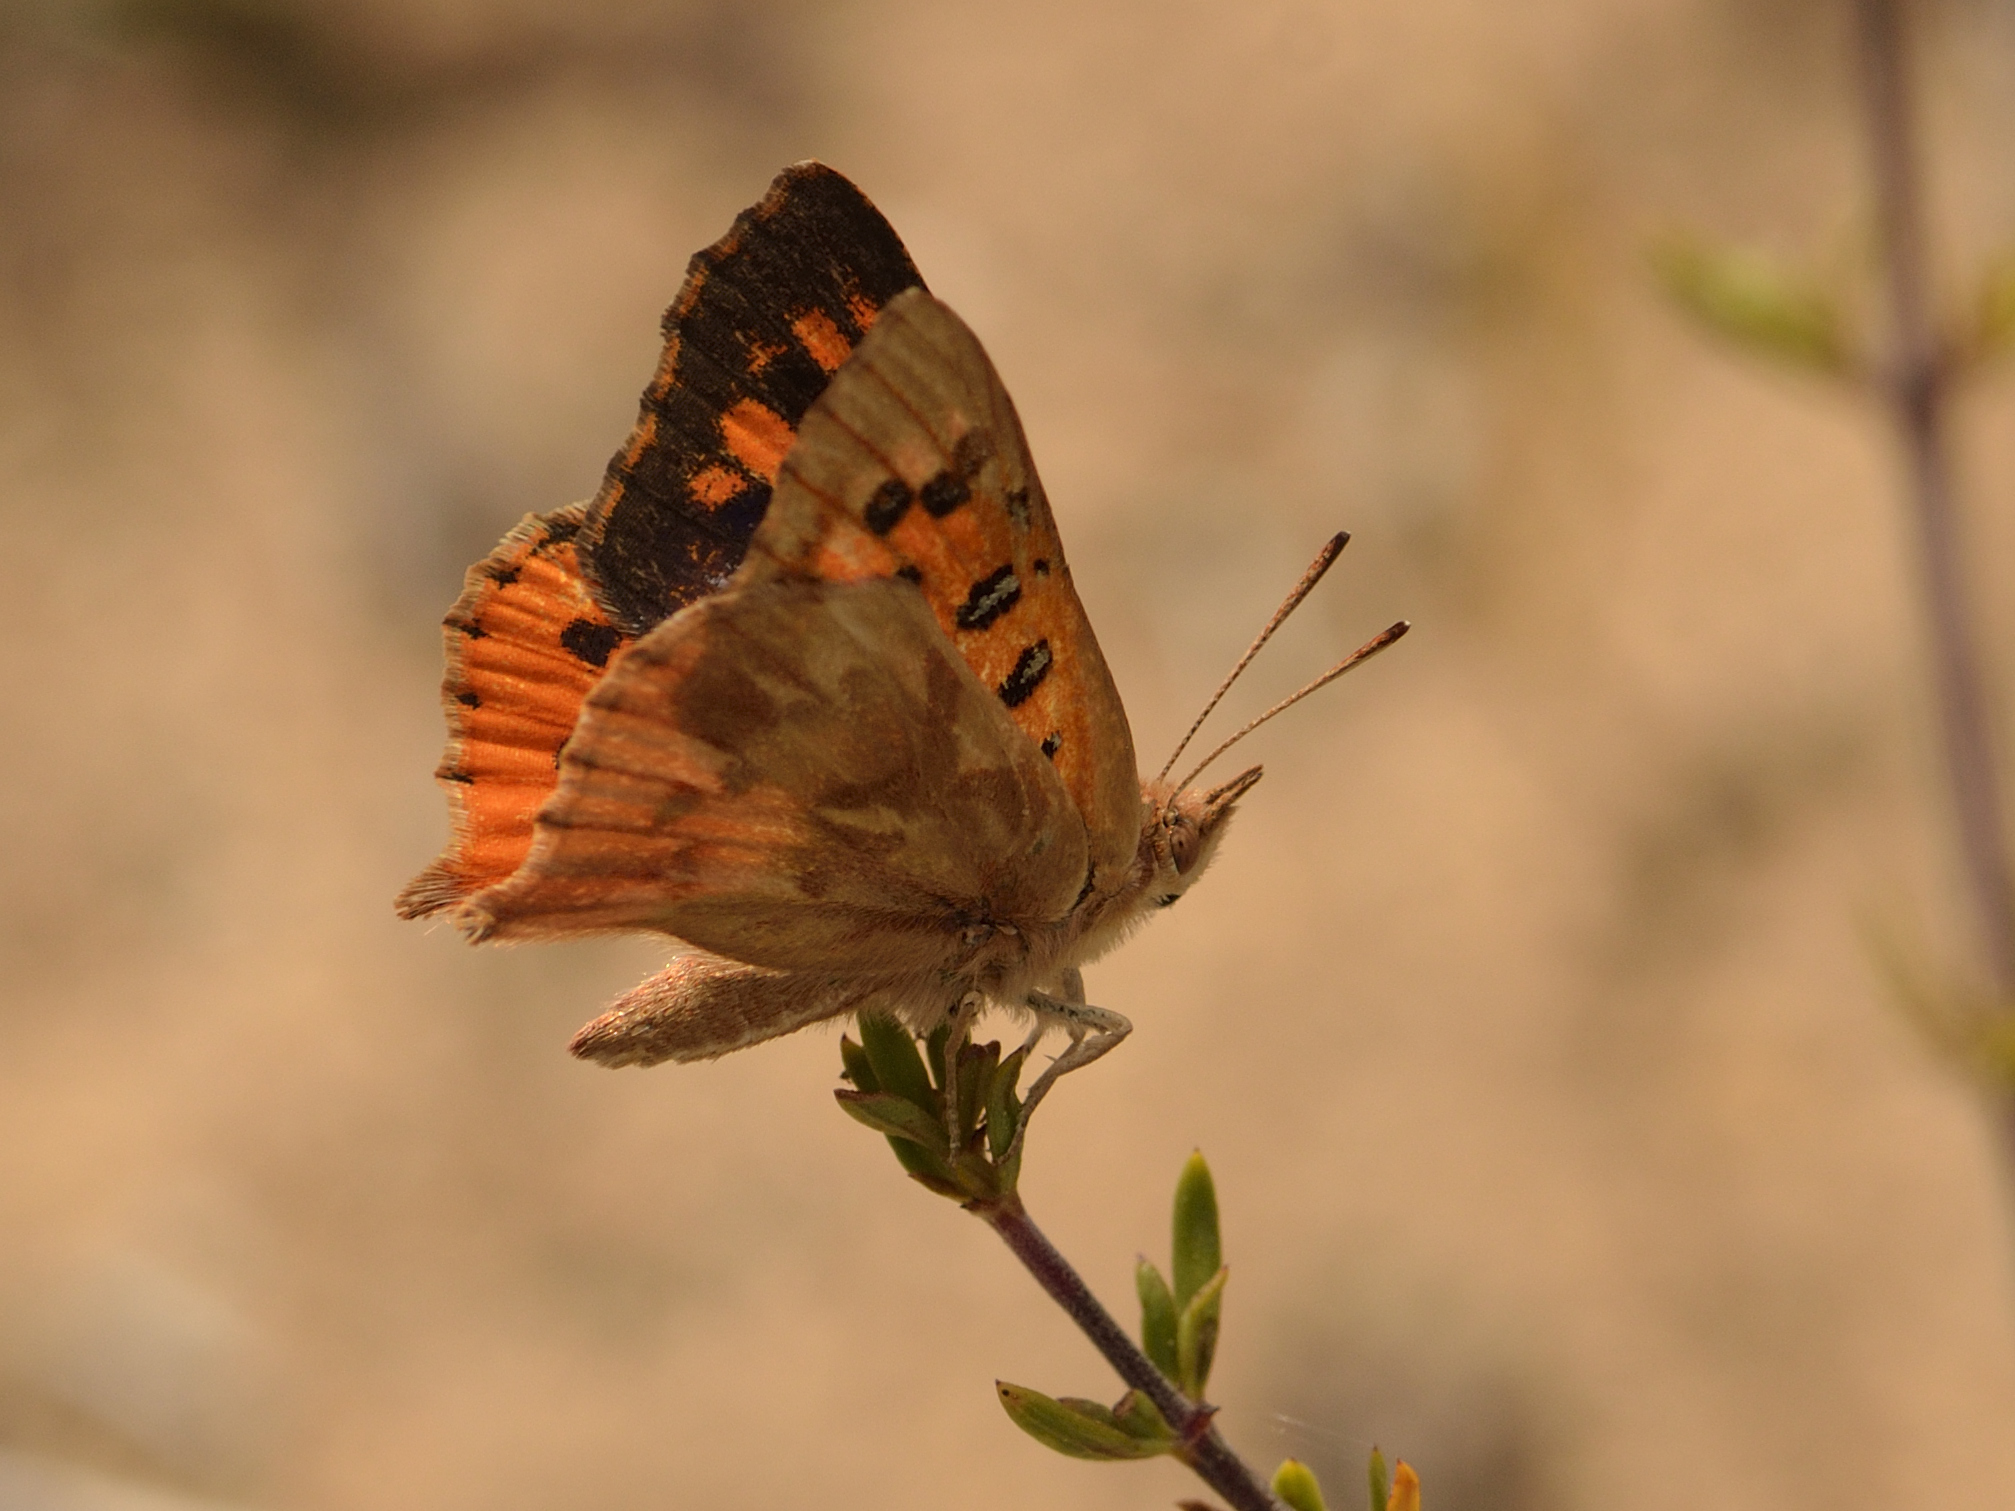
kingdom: Animalia
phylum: Arthropoda
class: Insecta
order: Lepidoptera
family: Lycaenidae
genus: Chrysoritis
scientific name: Chrysoritis thysbe
